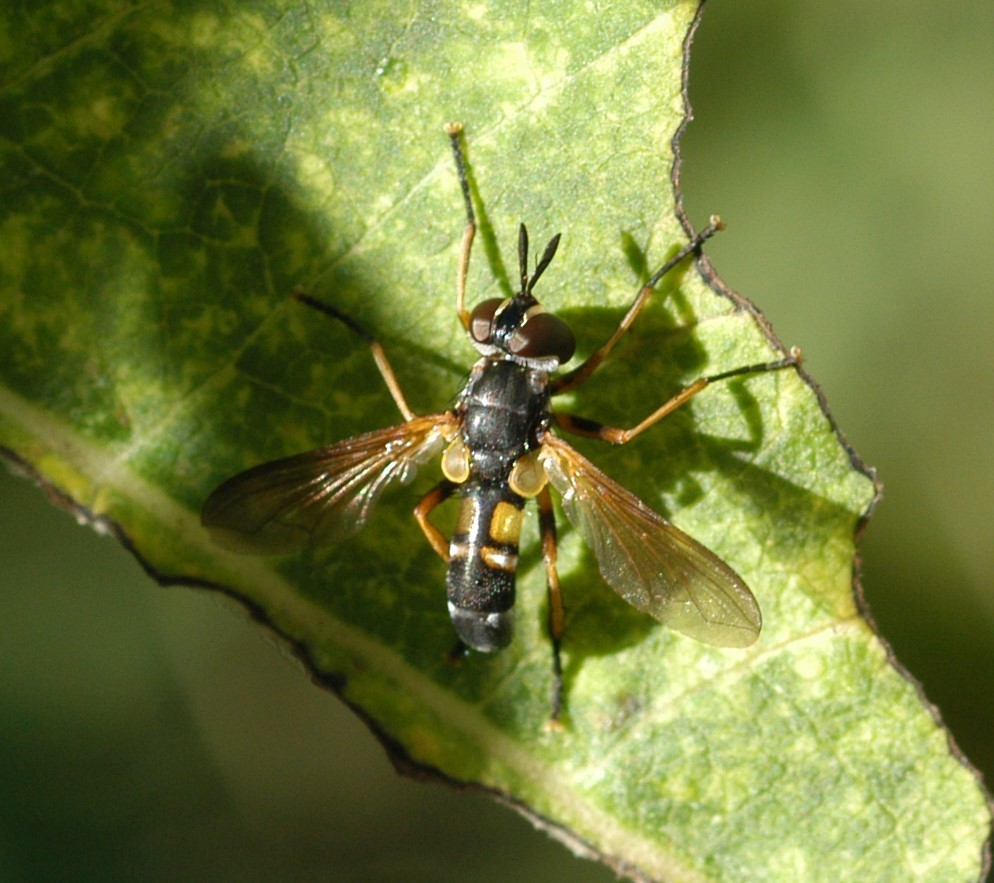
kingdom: Animalia
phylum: Arthropoda
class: Insecta
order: Diptera
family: Tachinidae
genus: Hemyda
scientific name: Hemyda aurata
